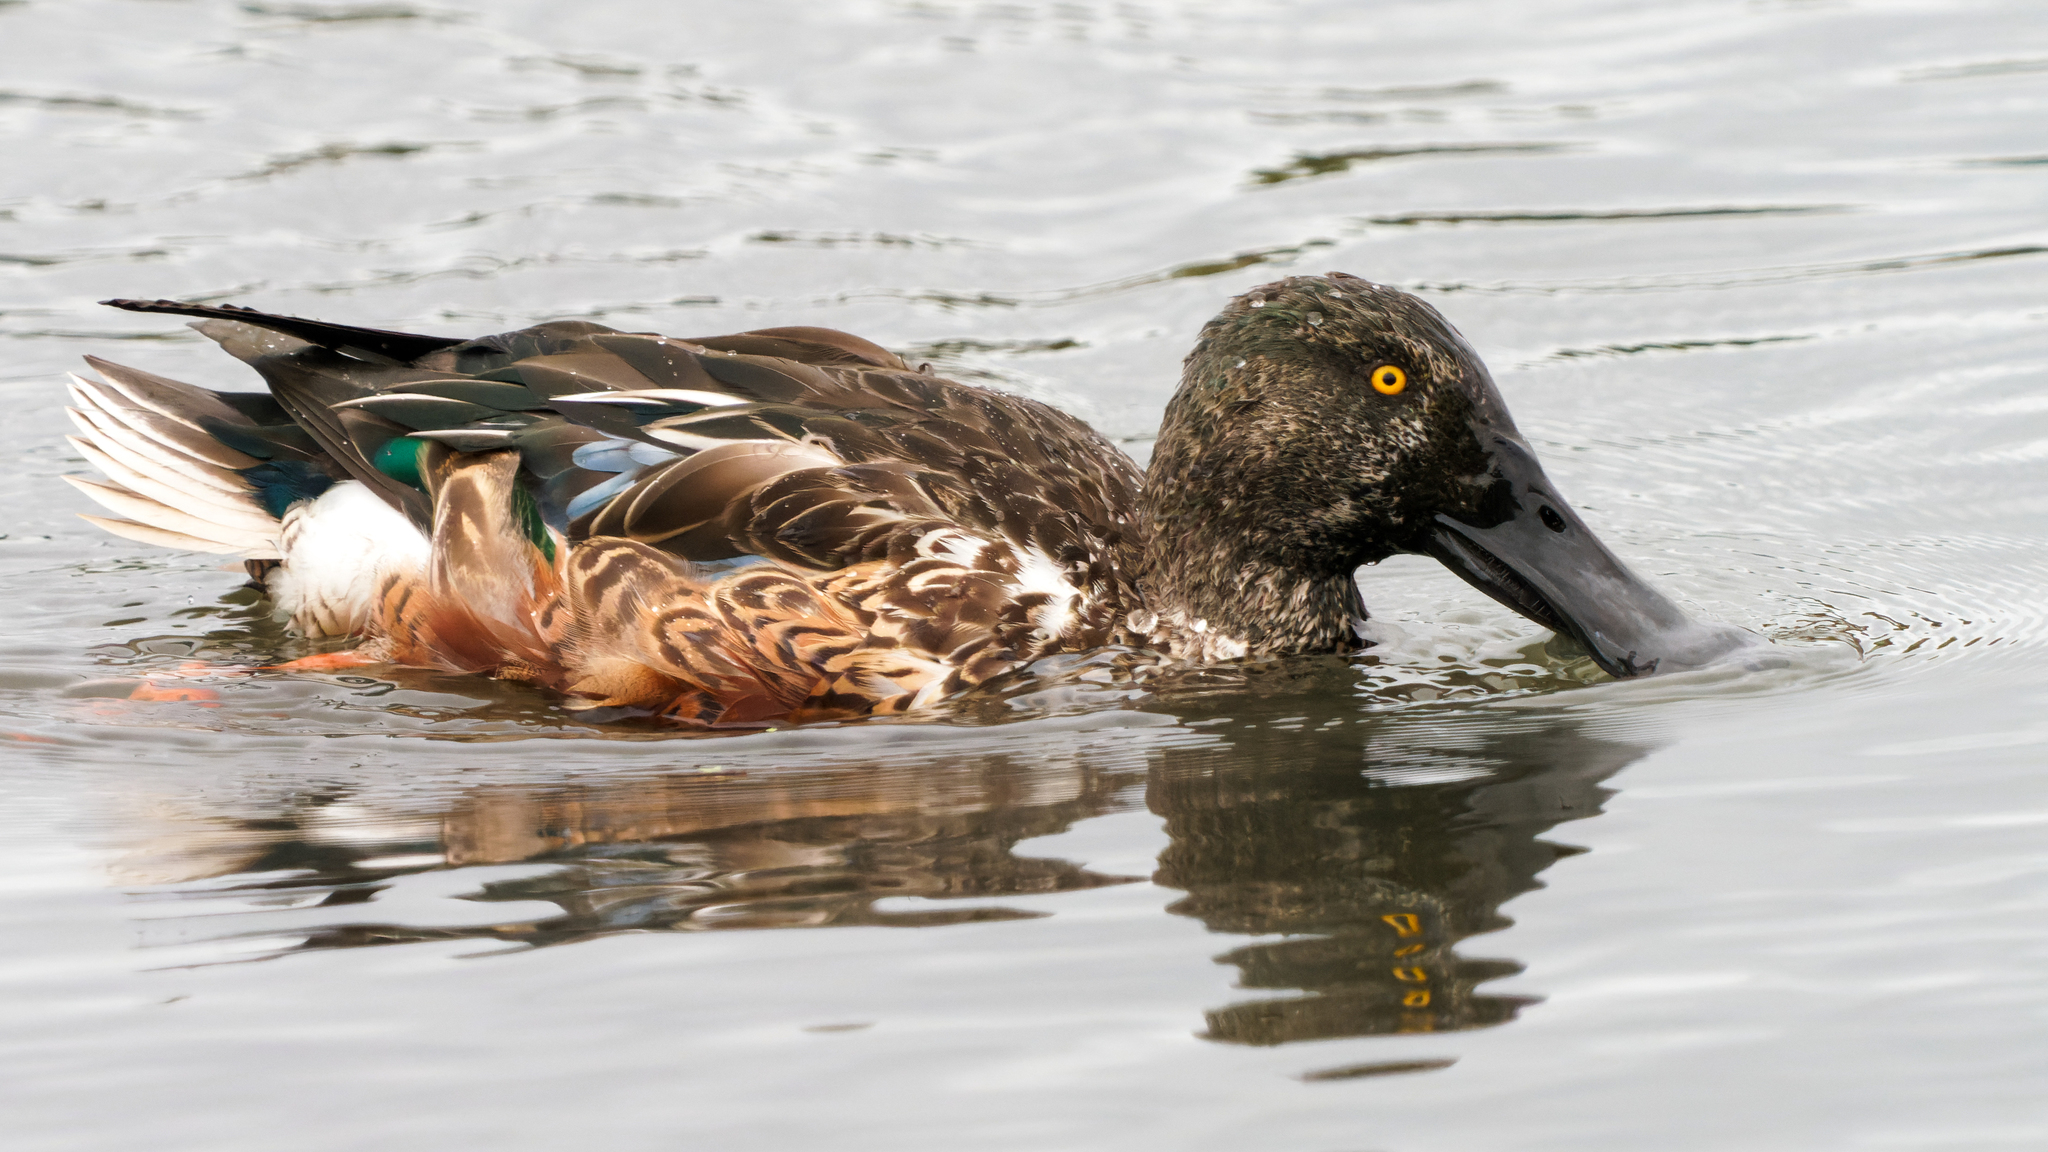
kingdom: Animalia
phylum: Chordata
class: Aves
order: Anseriformes
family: Anatidae
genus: Spatula
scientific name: Spatula clypeata
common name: Northern shoveler
